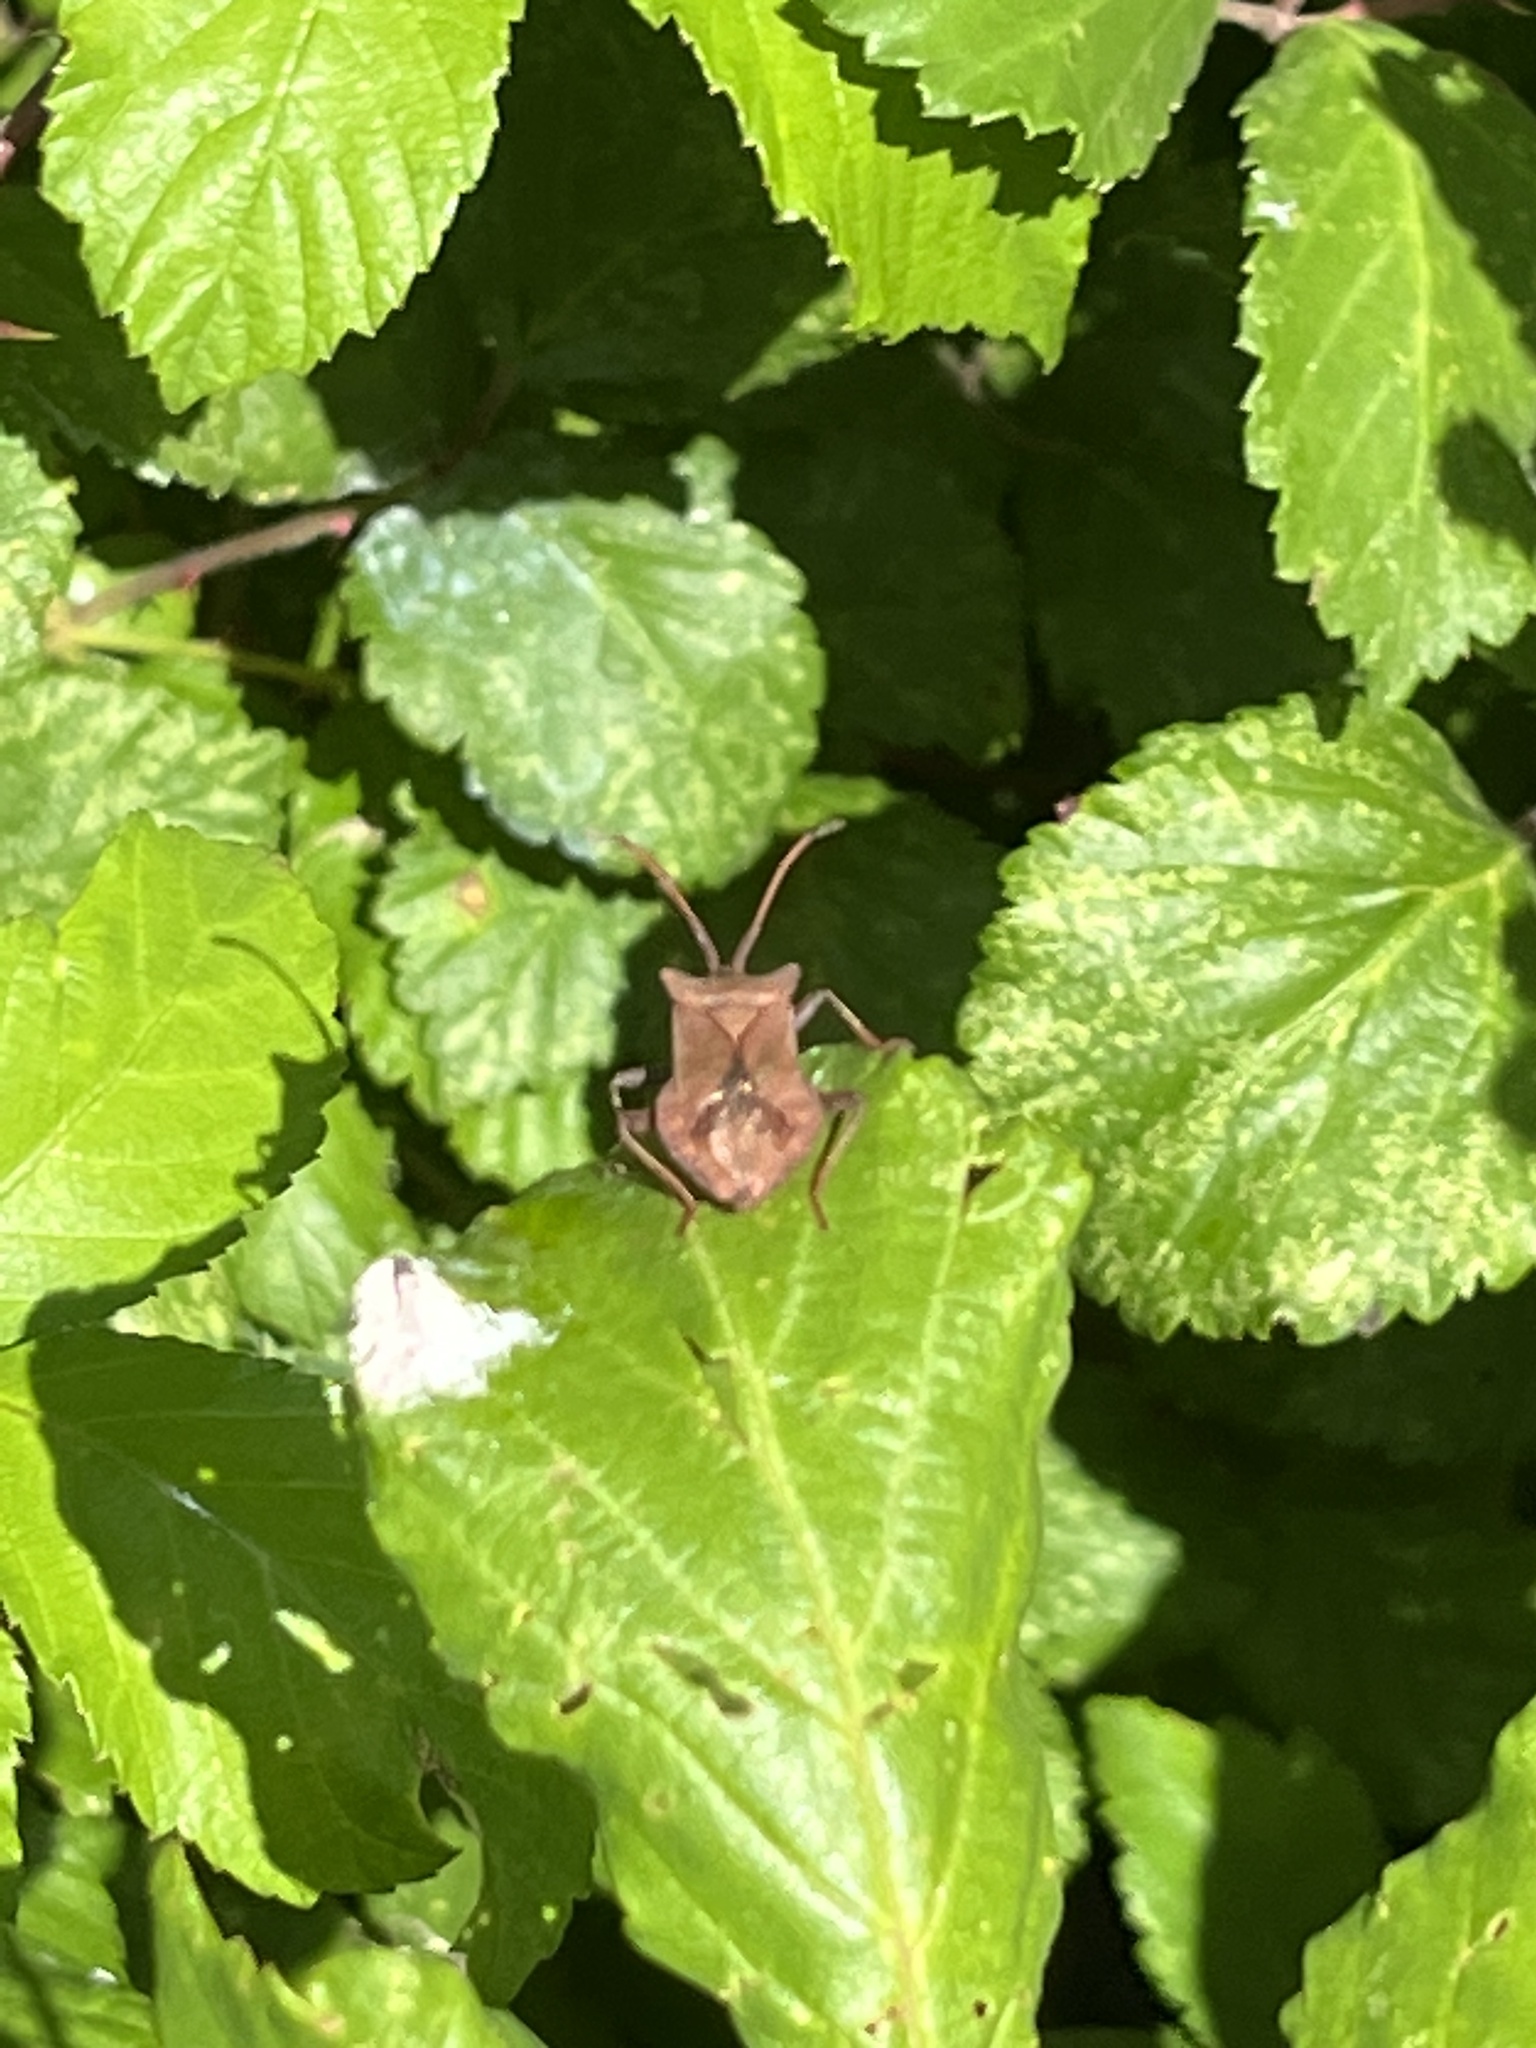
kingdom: Animalia
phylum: Arthropoda
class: Insecta
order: Hemiptera
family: Coreidae
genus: Coreus
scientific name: Coreus marginatus
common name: Dock bug
